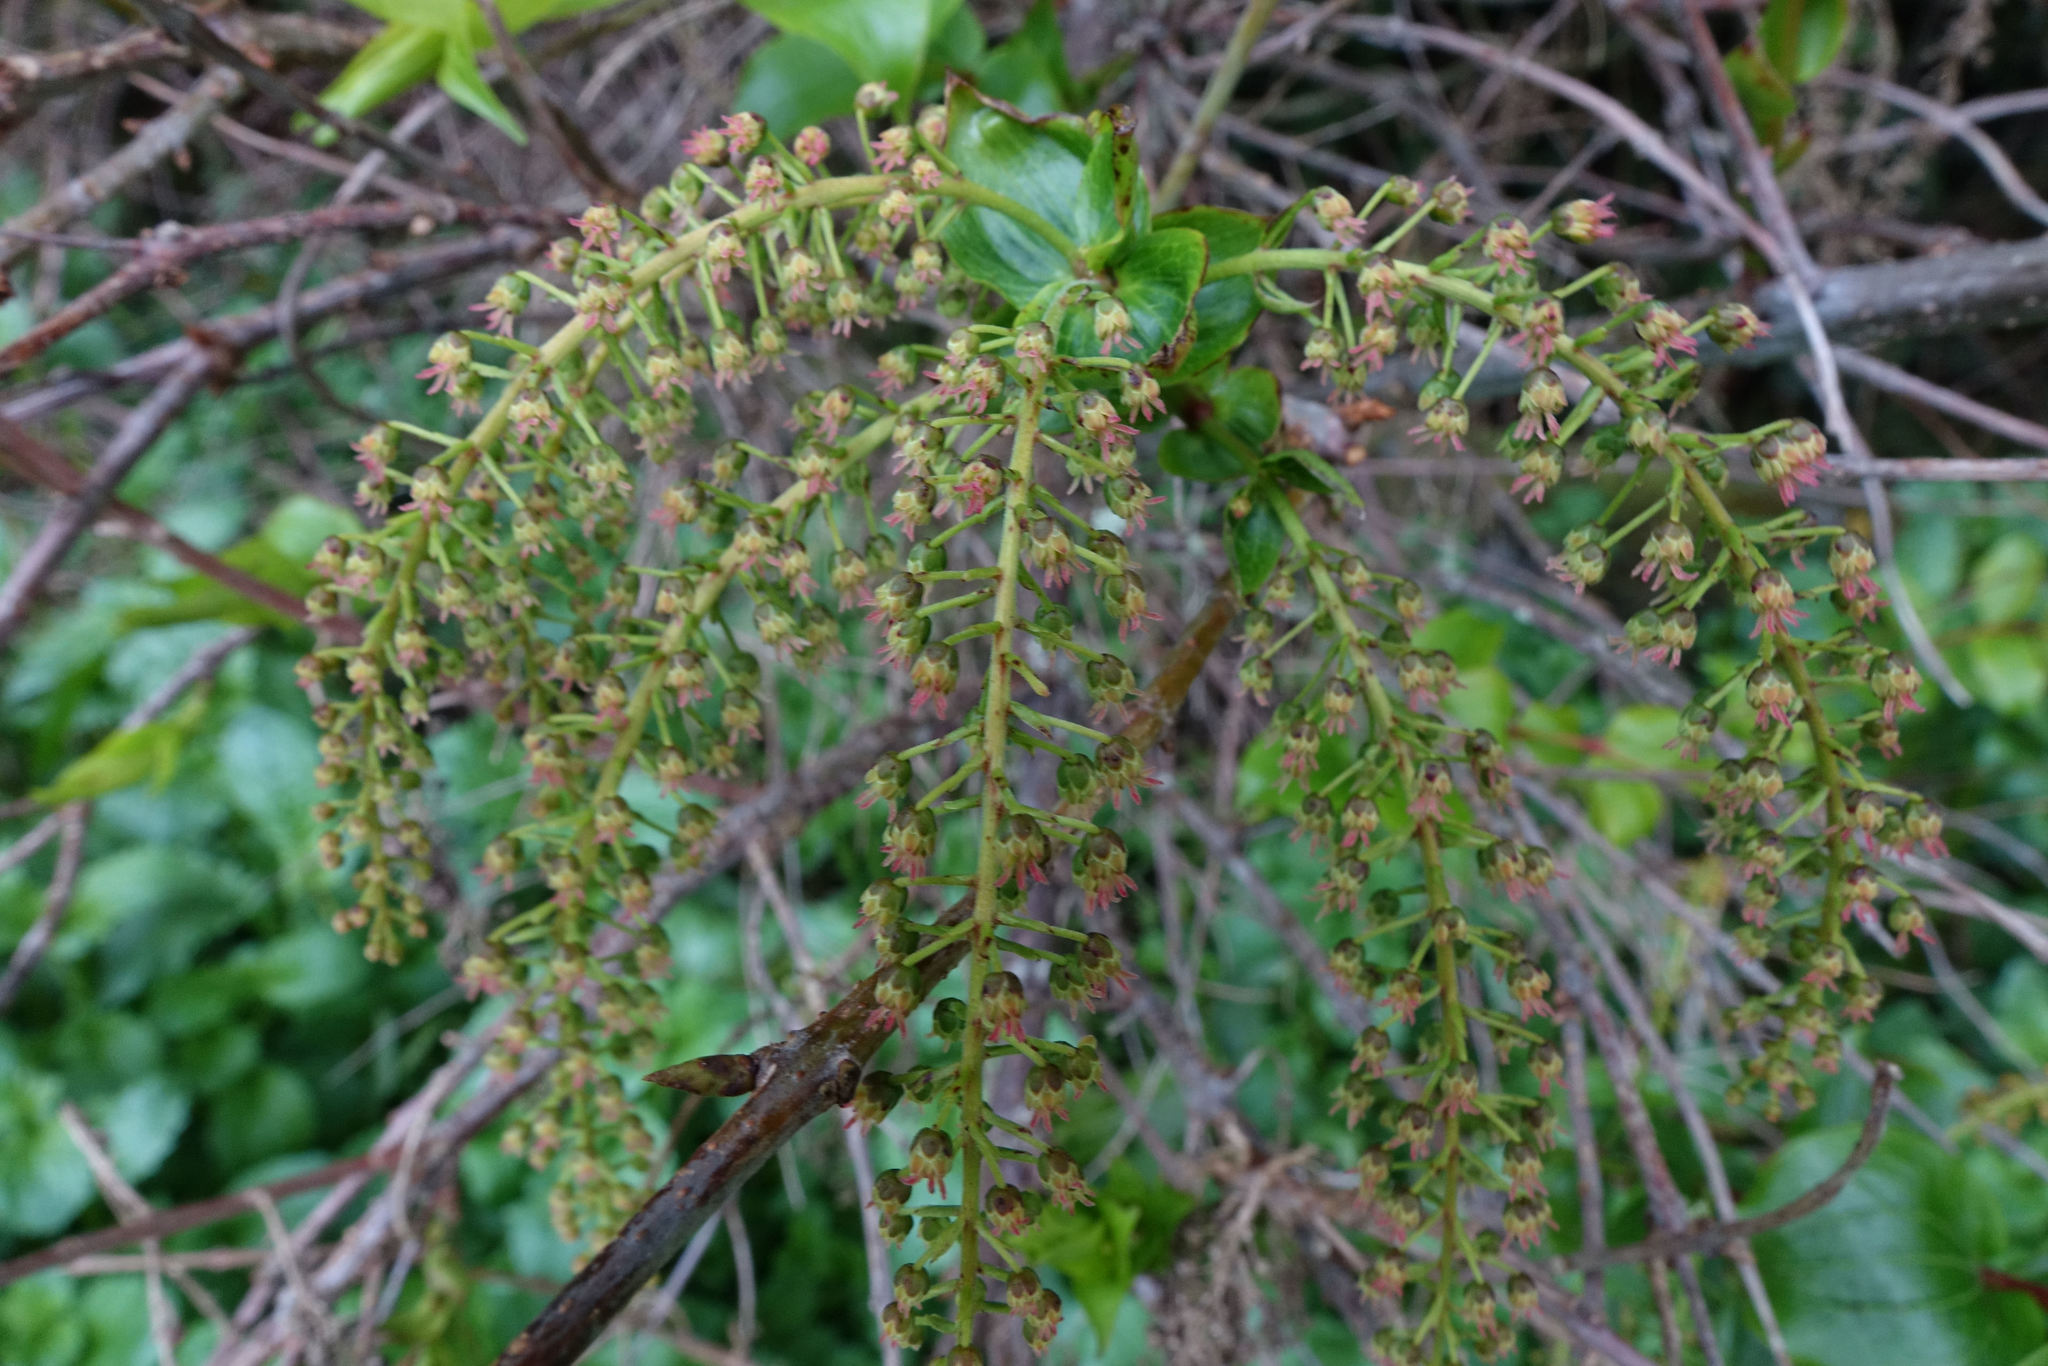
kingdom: Plantae
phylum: Tracheophyta
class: Magnoliopsida
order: Cucurbitales
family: Coriariaceae
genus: Coriaria
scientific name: Coriaria arborea
